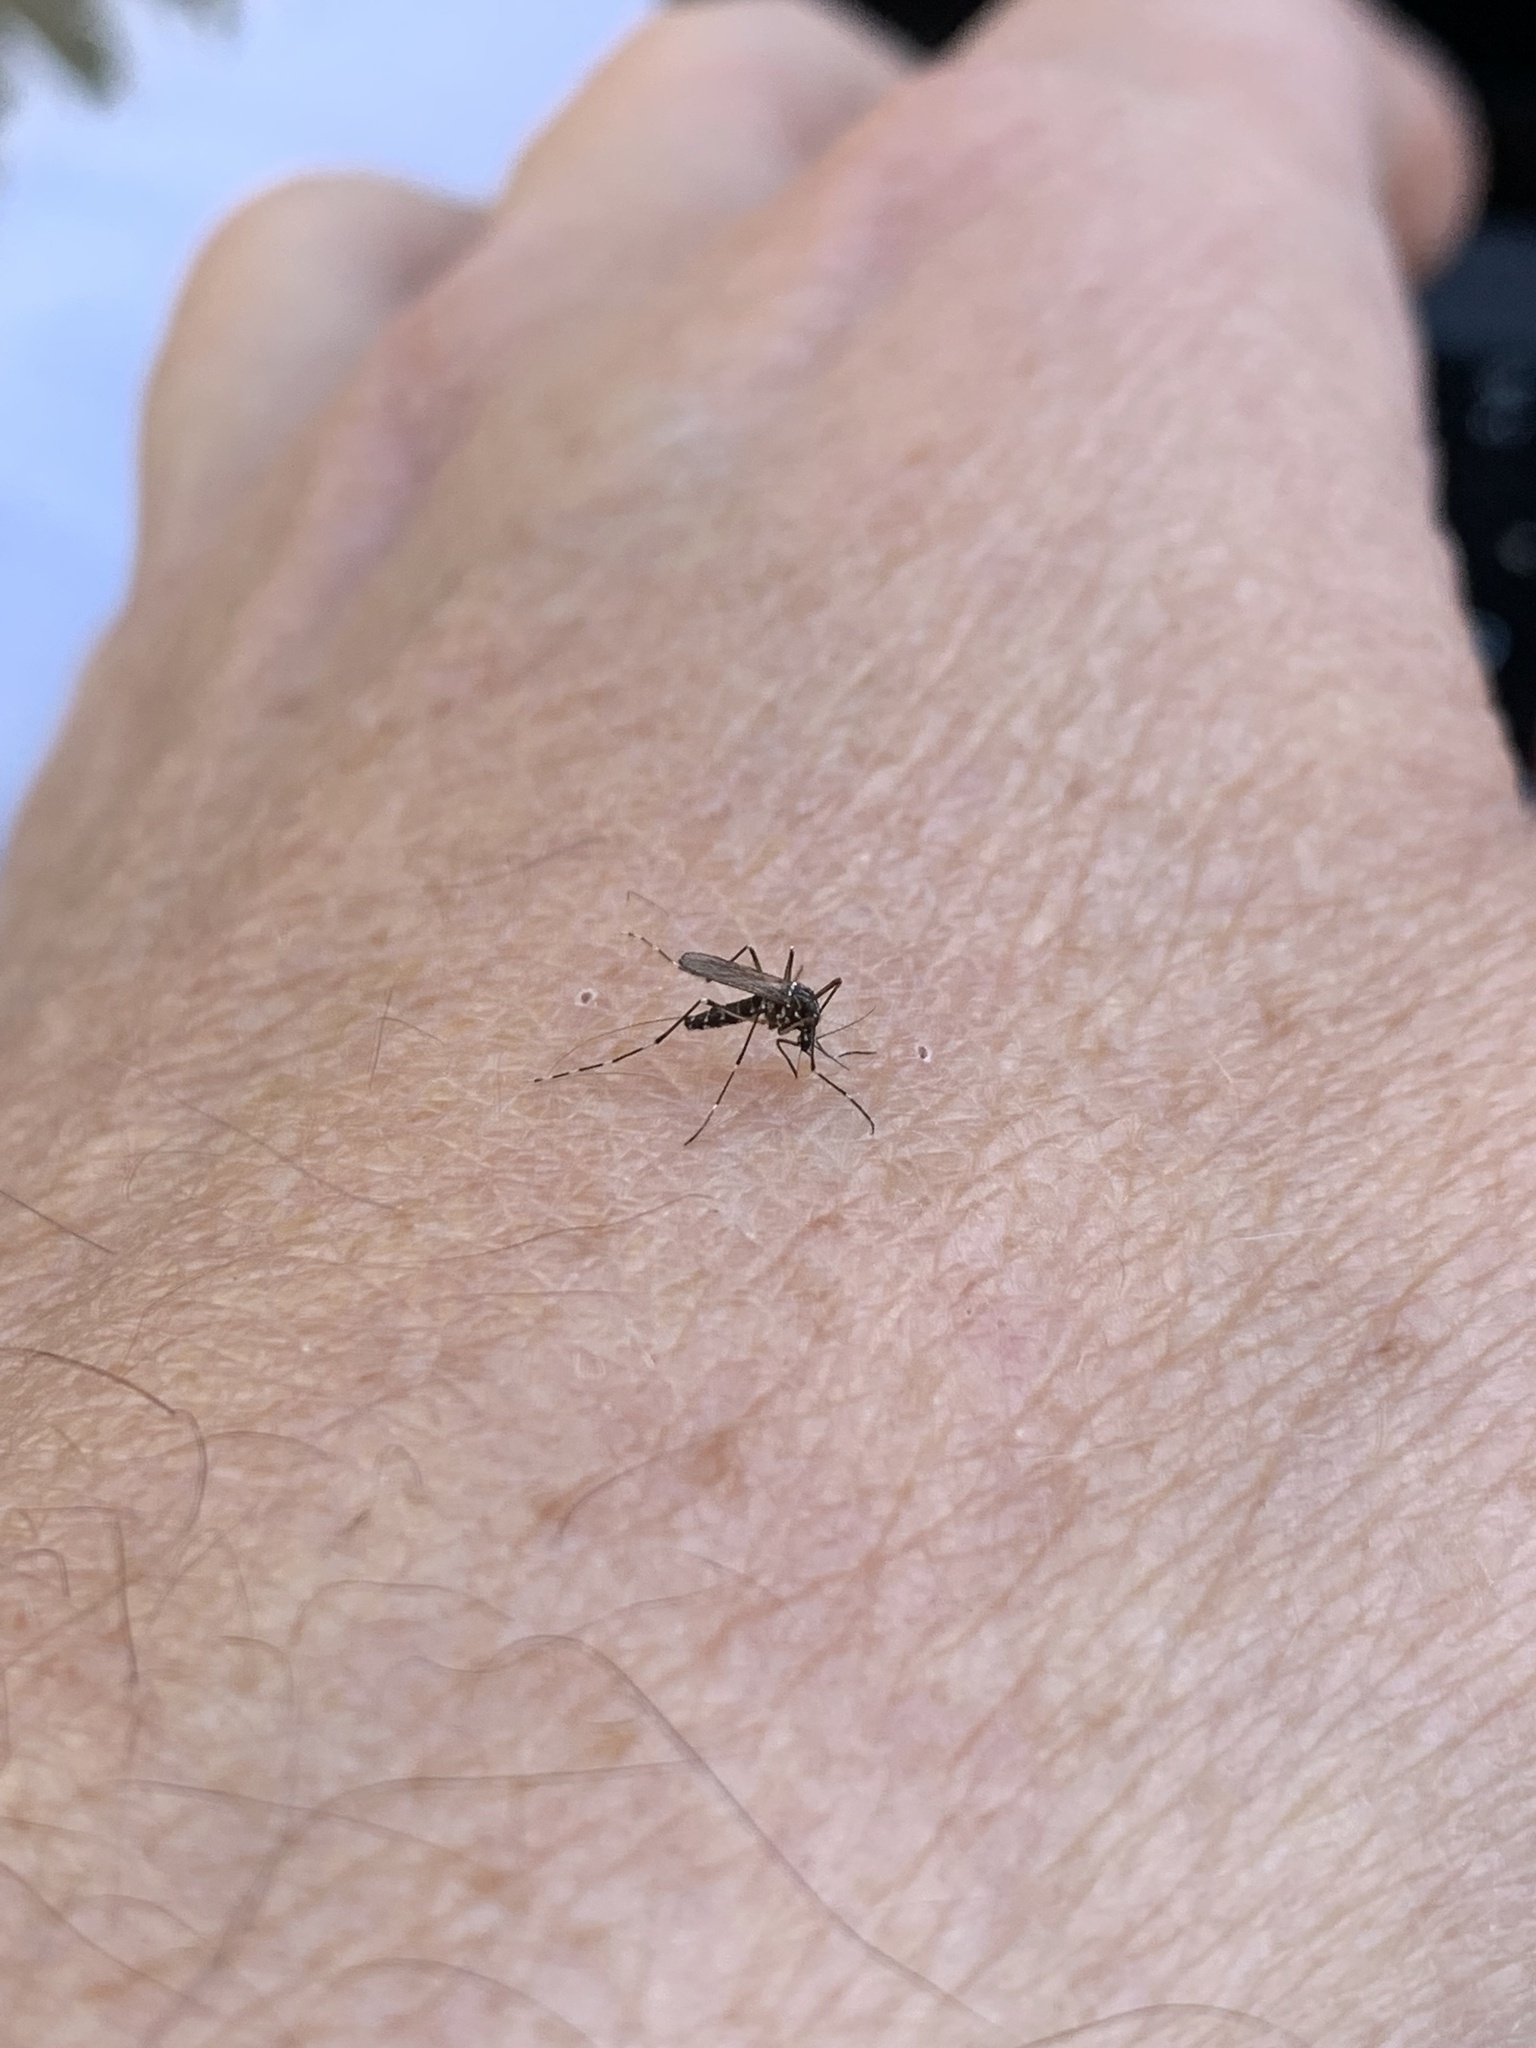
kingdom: Animalia
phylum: Arthropoda
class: Insecta
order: Diptera
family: Culicidae
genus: Aedes
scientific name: Aedes albopictus
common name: Tiger mosquito
